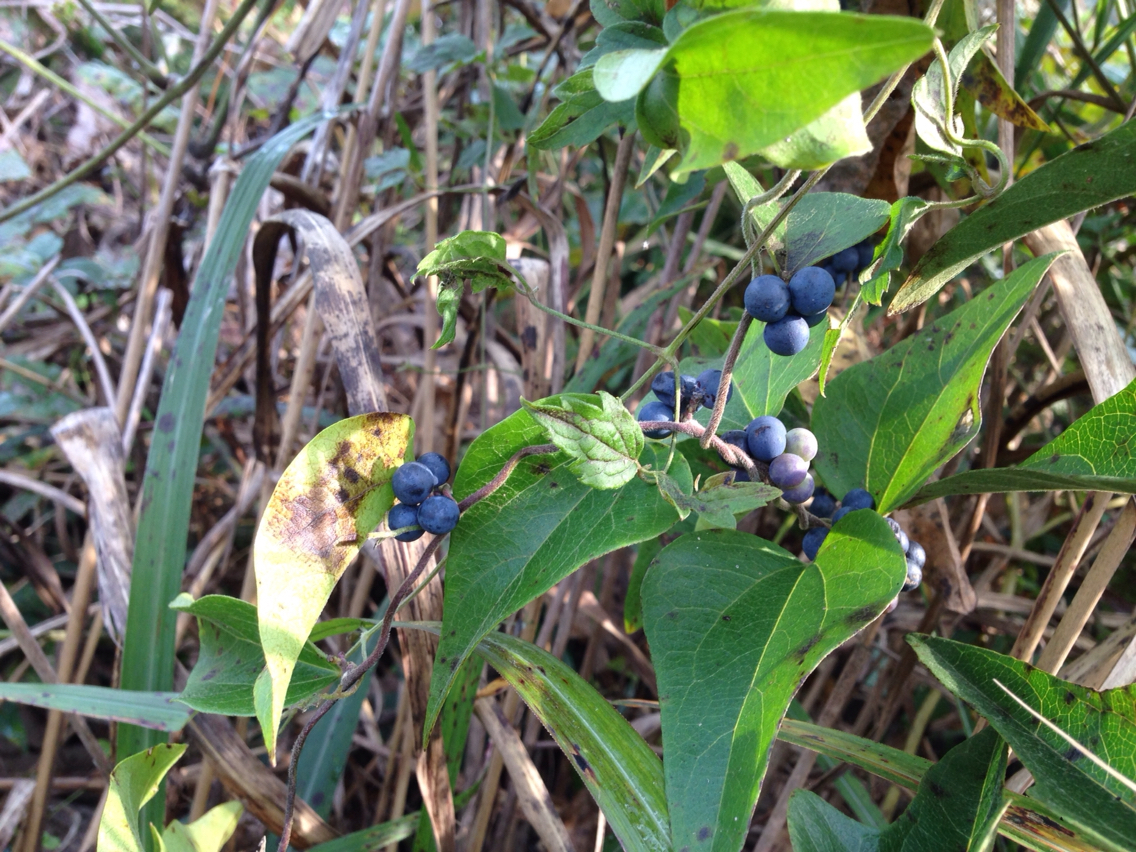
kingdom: Plantae
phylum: Tracheophyta
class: Magnoliopsida
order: Ranunculales
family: Menispermaceae
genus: Cocculus
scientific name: Cocculus orbiculatus
